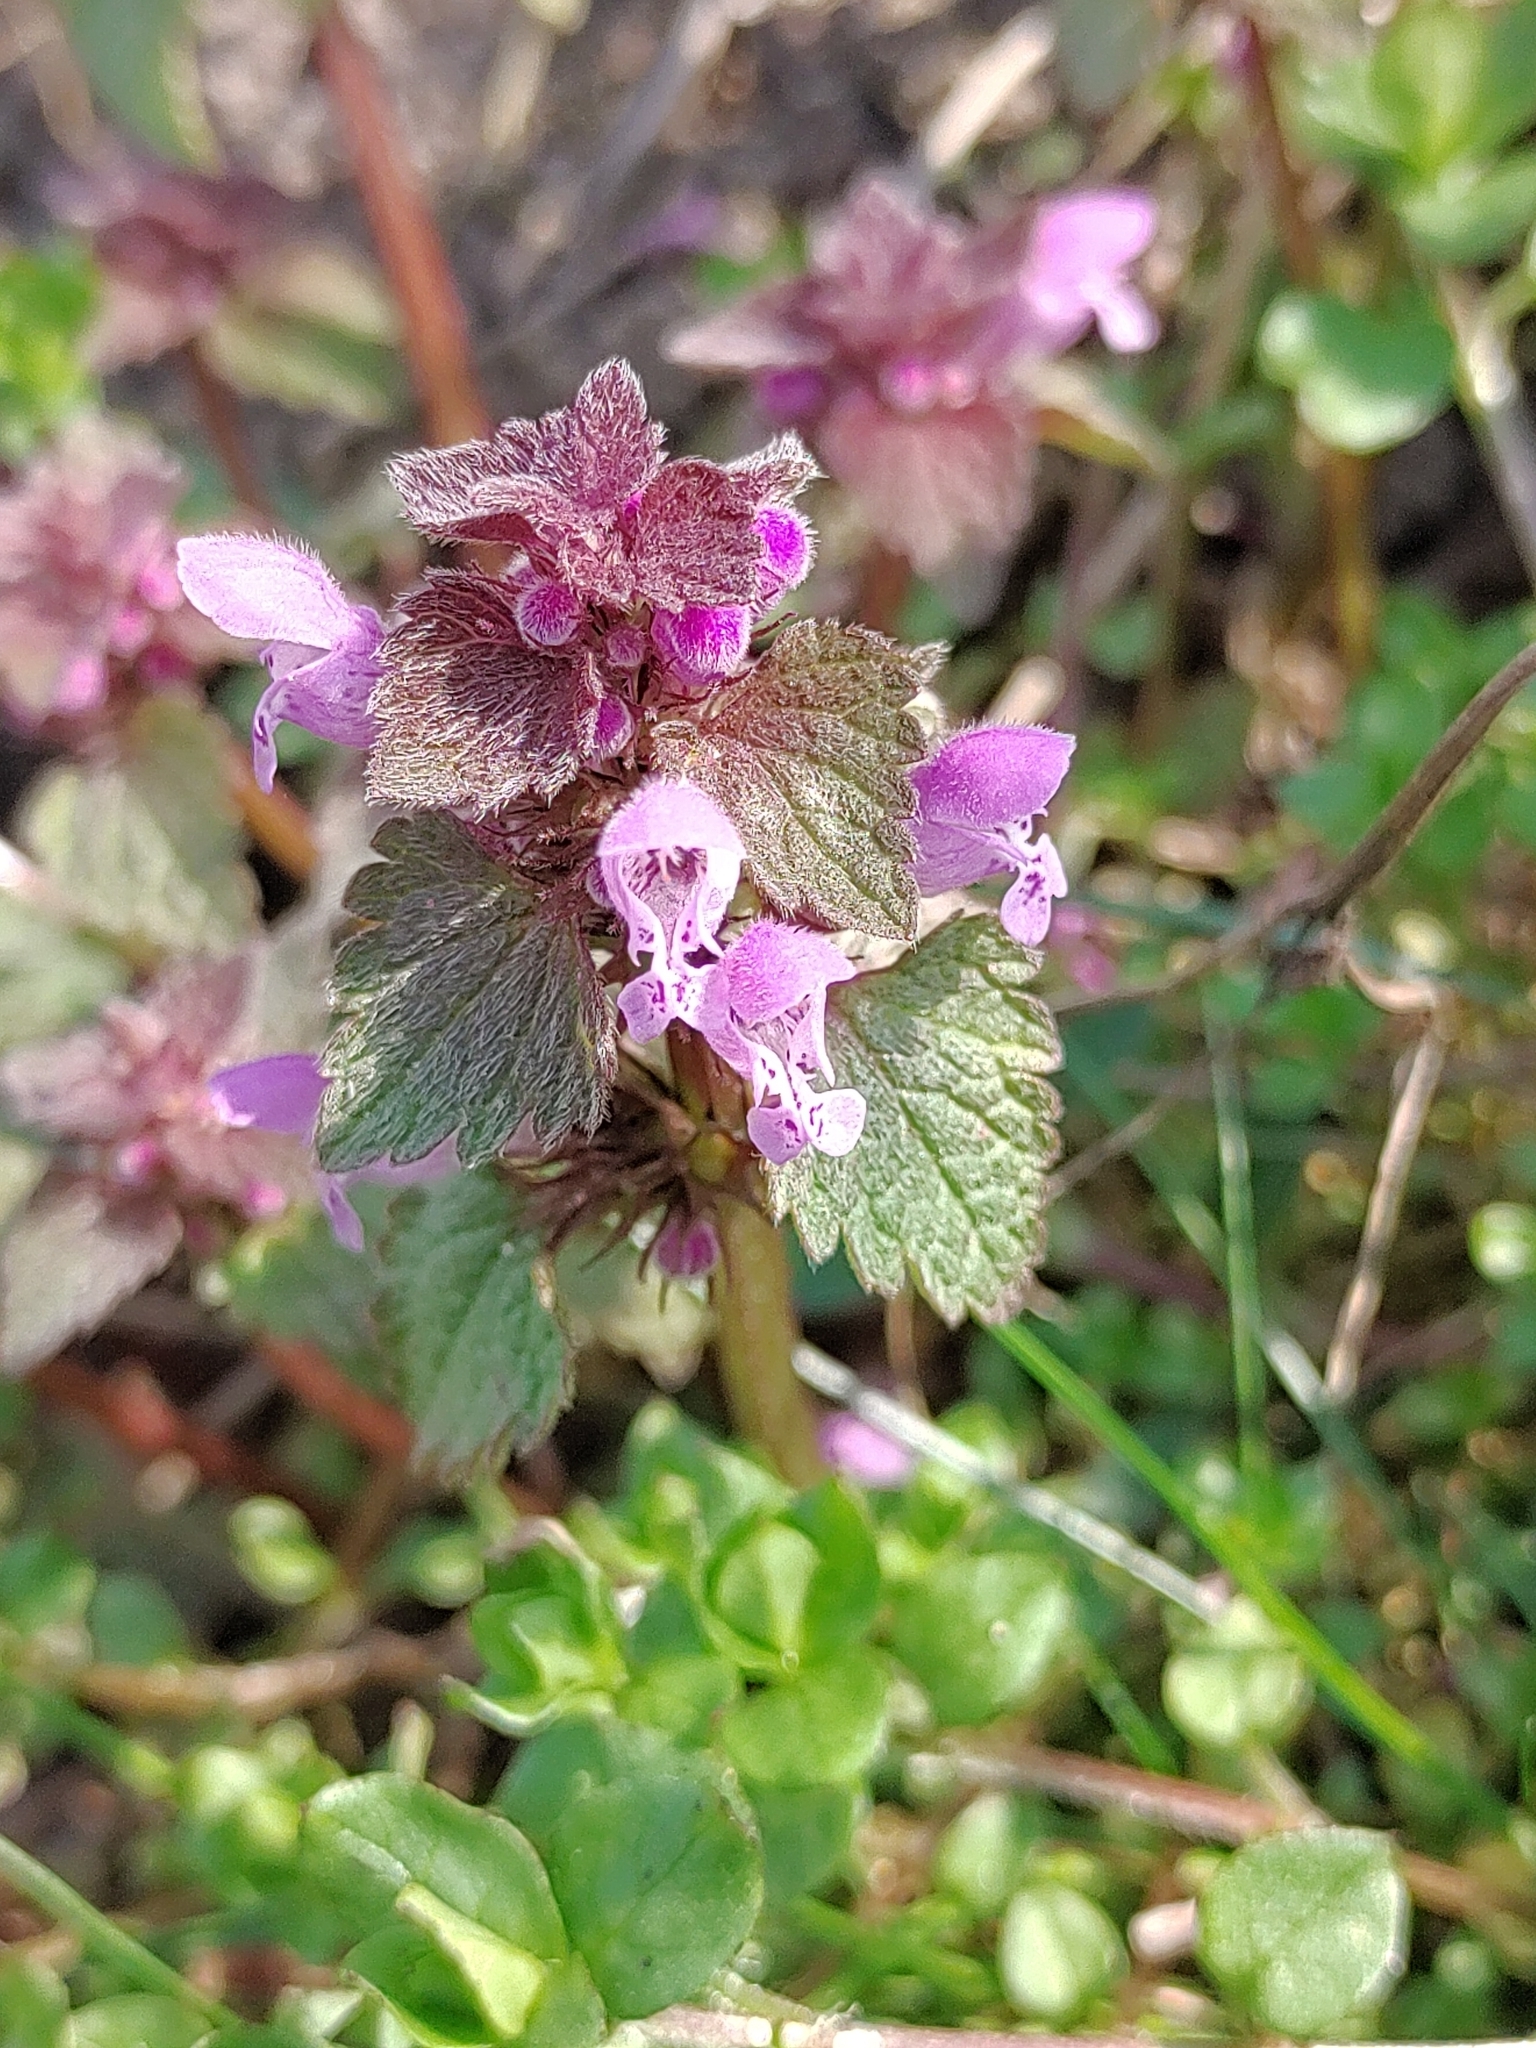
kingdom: Plantae
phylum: Tracheophyta
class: Magnoliopsida
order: Lamiales
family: Lamiaceae
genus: Lamium
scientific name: Lamium purpureum
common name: Red dead-nettle
